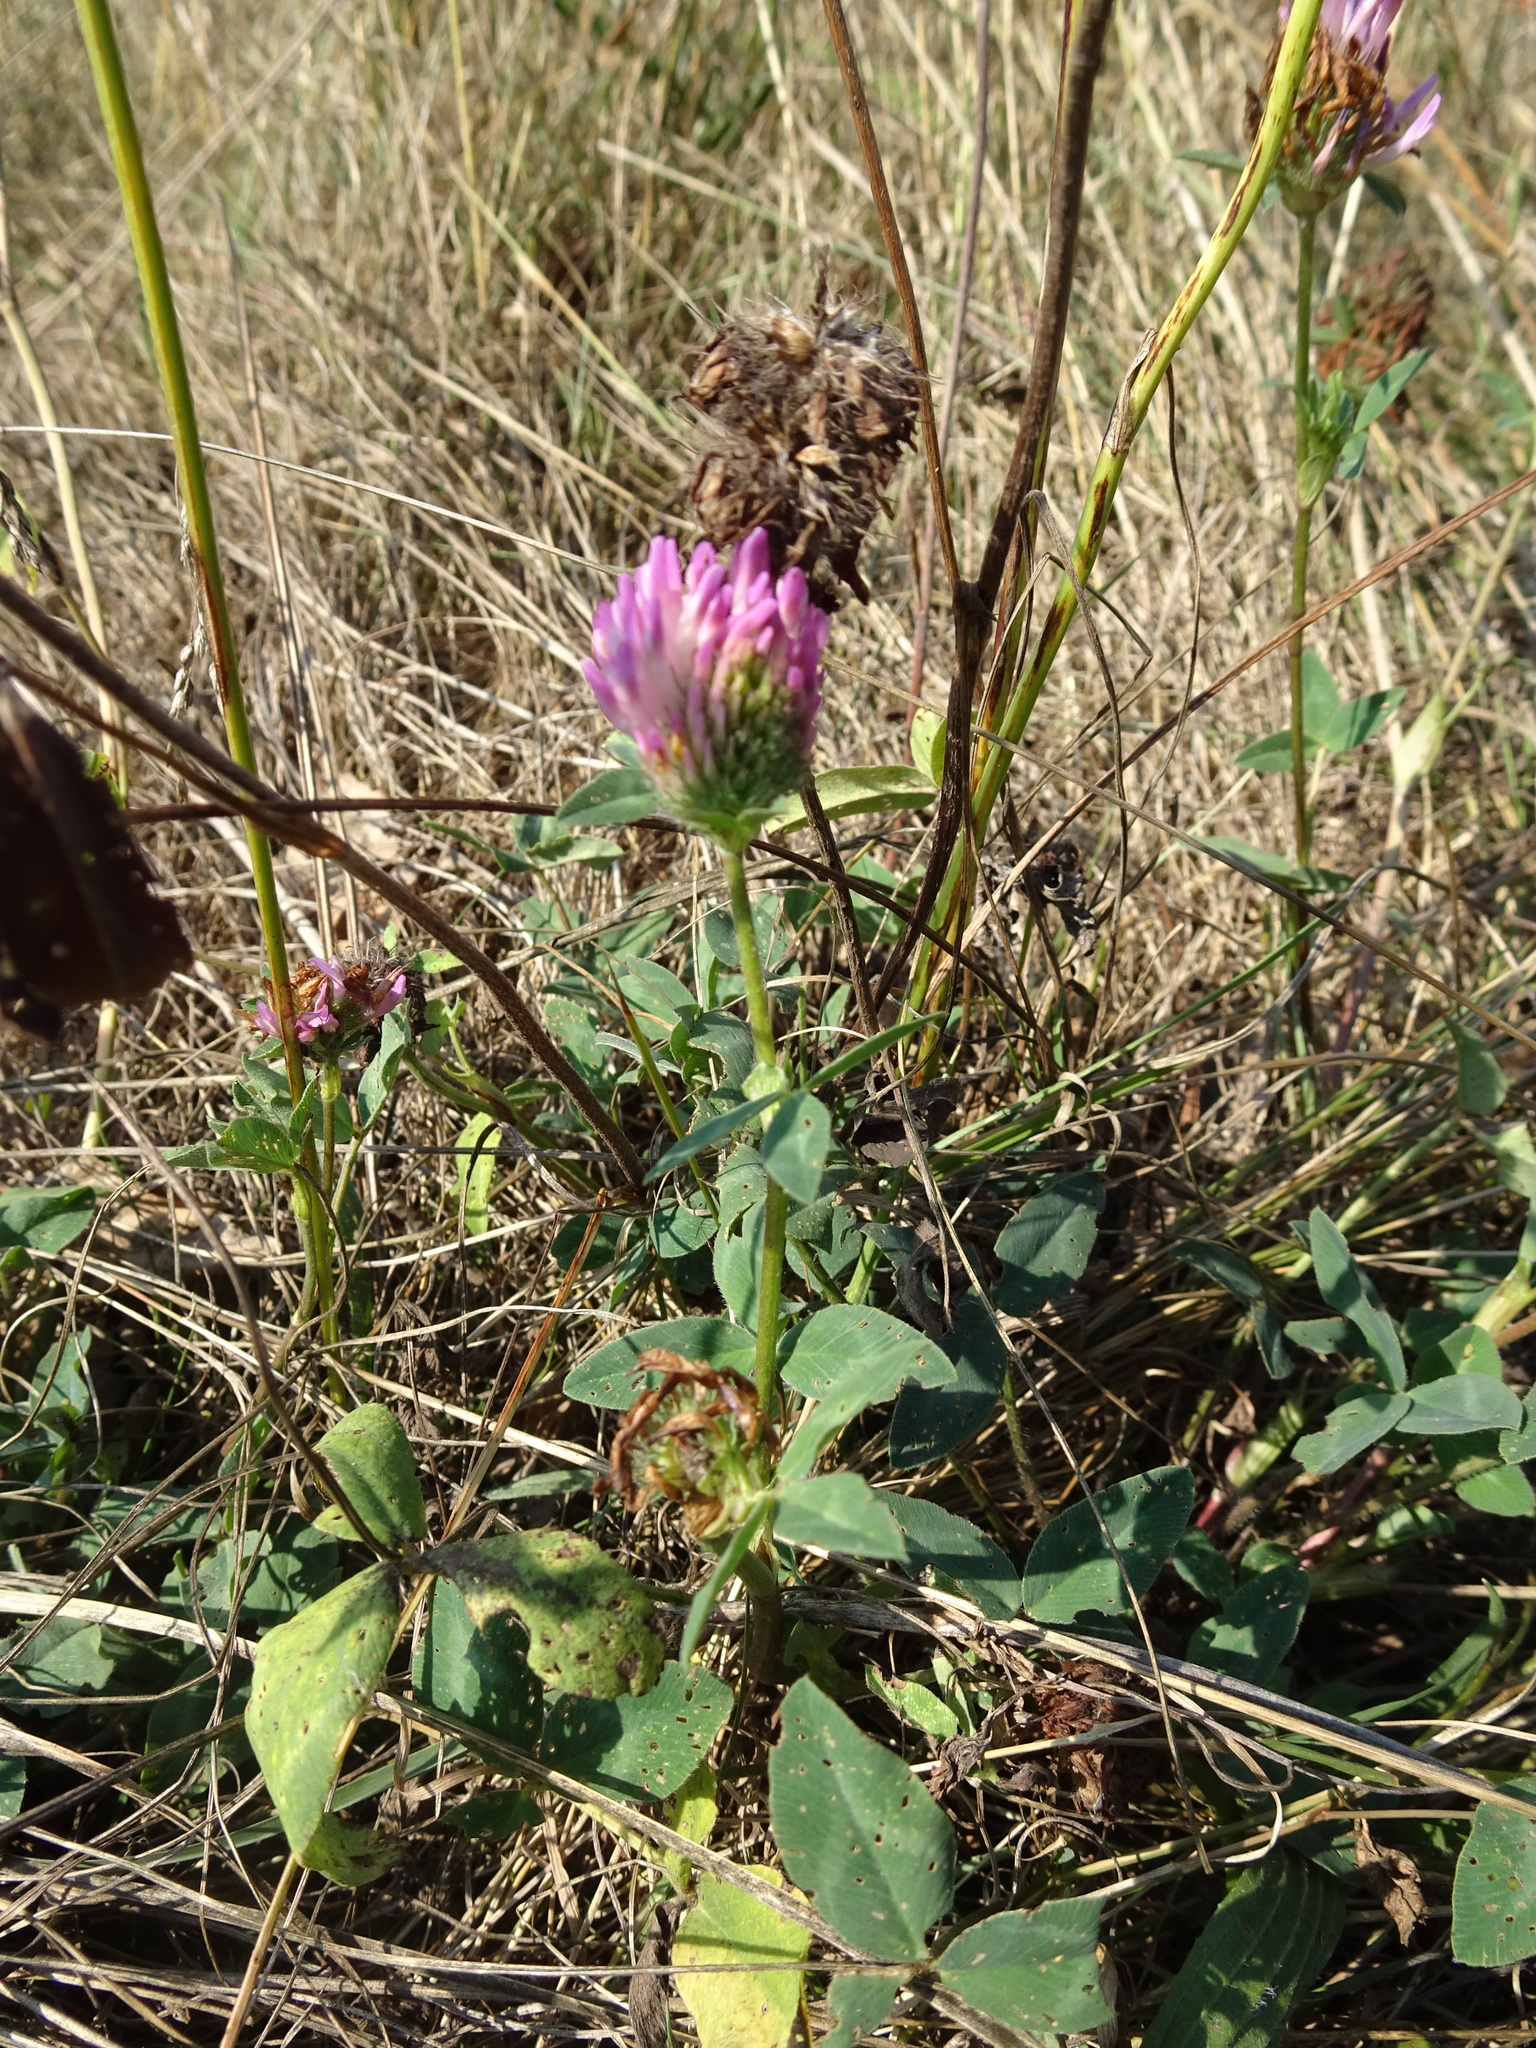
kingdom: Plantae
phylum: Tracheophyta
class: Magnoliopsida
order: Fabales
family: Fabaceae
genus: Trifolium
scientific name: Trifolium pratense
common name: Red clover
